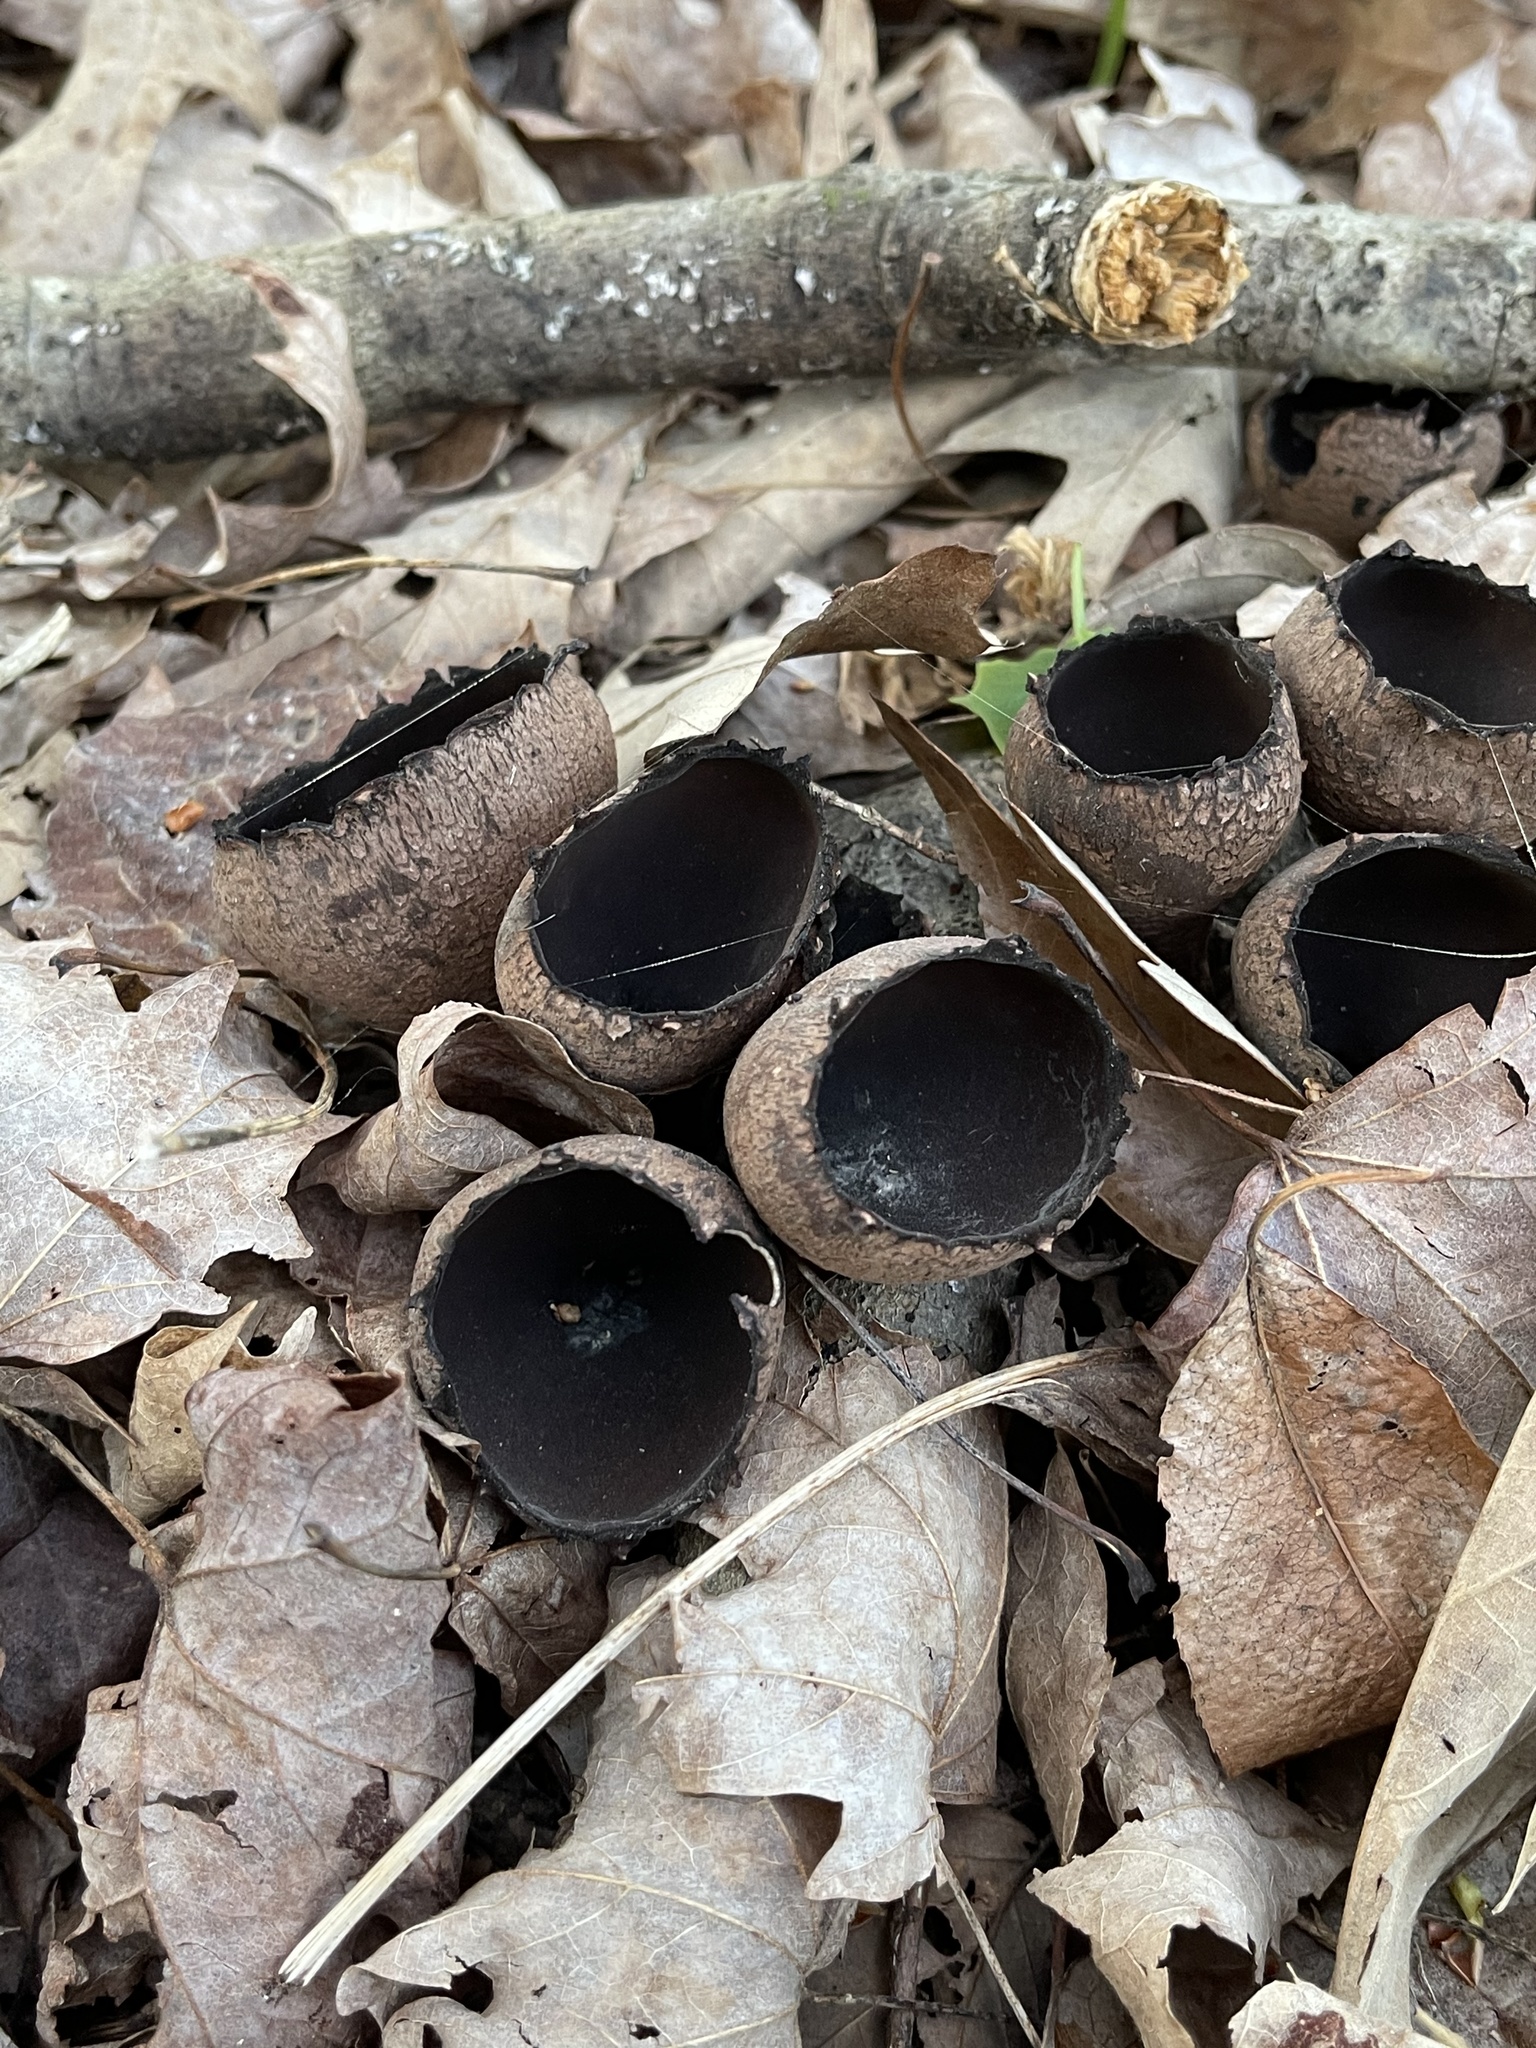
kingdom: Fungi
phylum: Ascomycota
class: Pezizomycetes
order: Pezizales
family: Sarcosomataceae
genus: Urnula
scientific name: Urnula craterium
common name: Devil's urn
